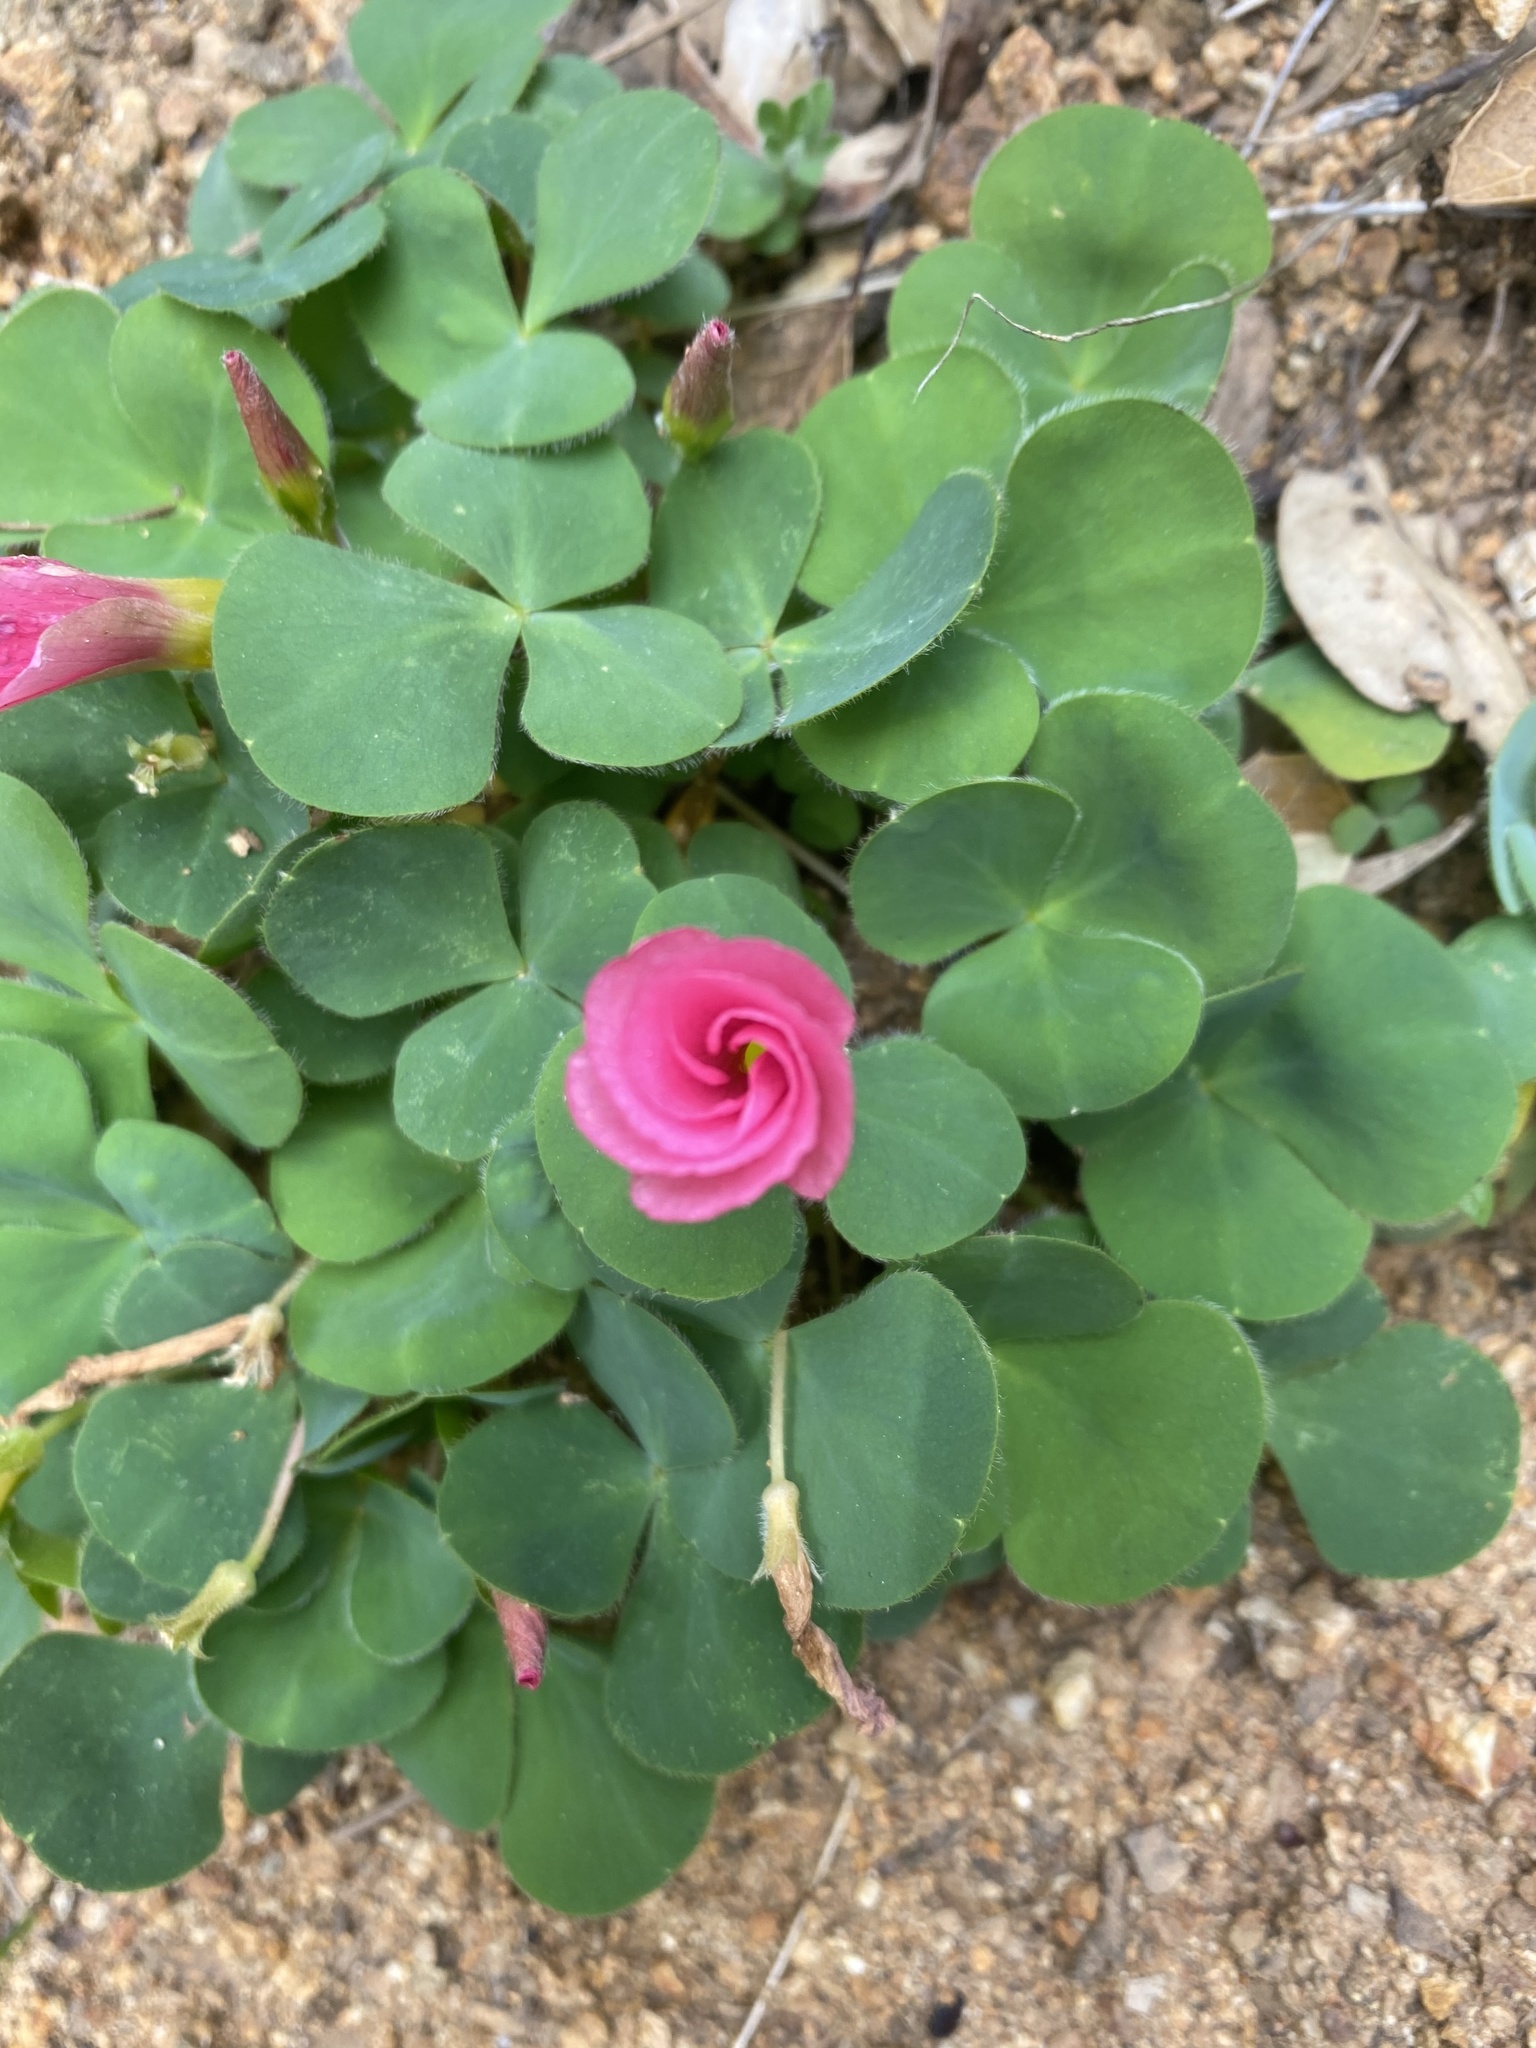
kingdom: Plantae
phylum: Tracheophyta
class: Magnoliopsida
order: Oxalidales
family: Oxalidaceae
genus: Oxalis
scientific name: Oxalis purpurea
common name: Purple woodsorrel
